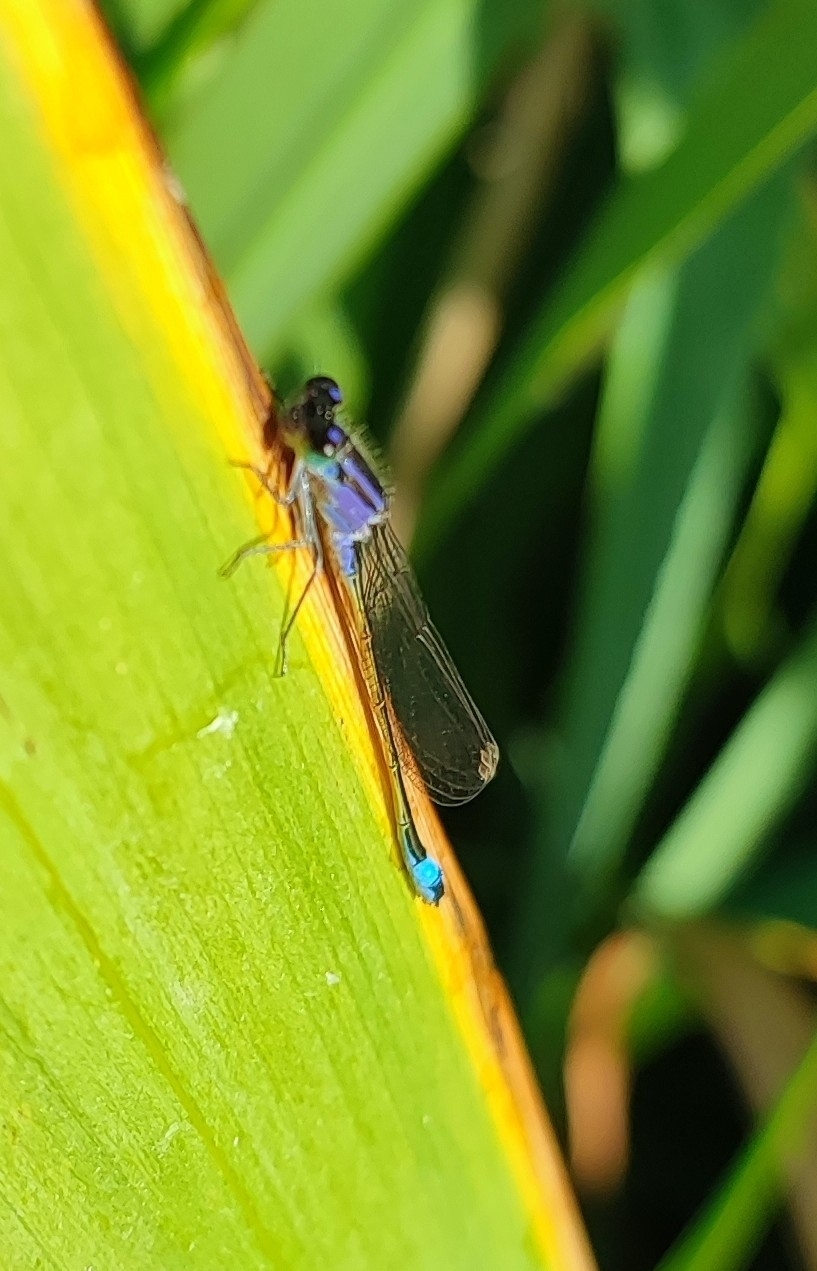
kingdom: Animalia
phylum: Arthropoda
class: Insecta
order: Odonata
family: Coenagrionidae
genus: Ischnura
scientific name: Ischnura elegans
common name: Blue-tailed damselfly
